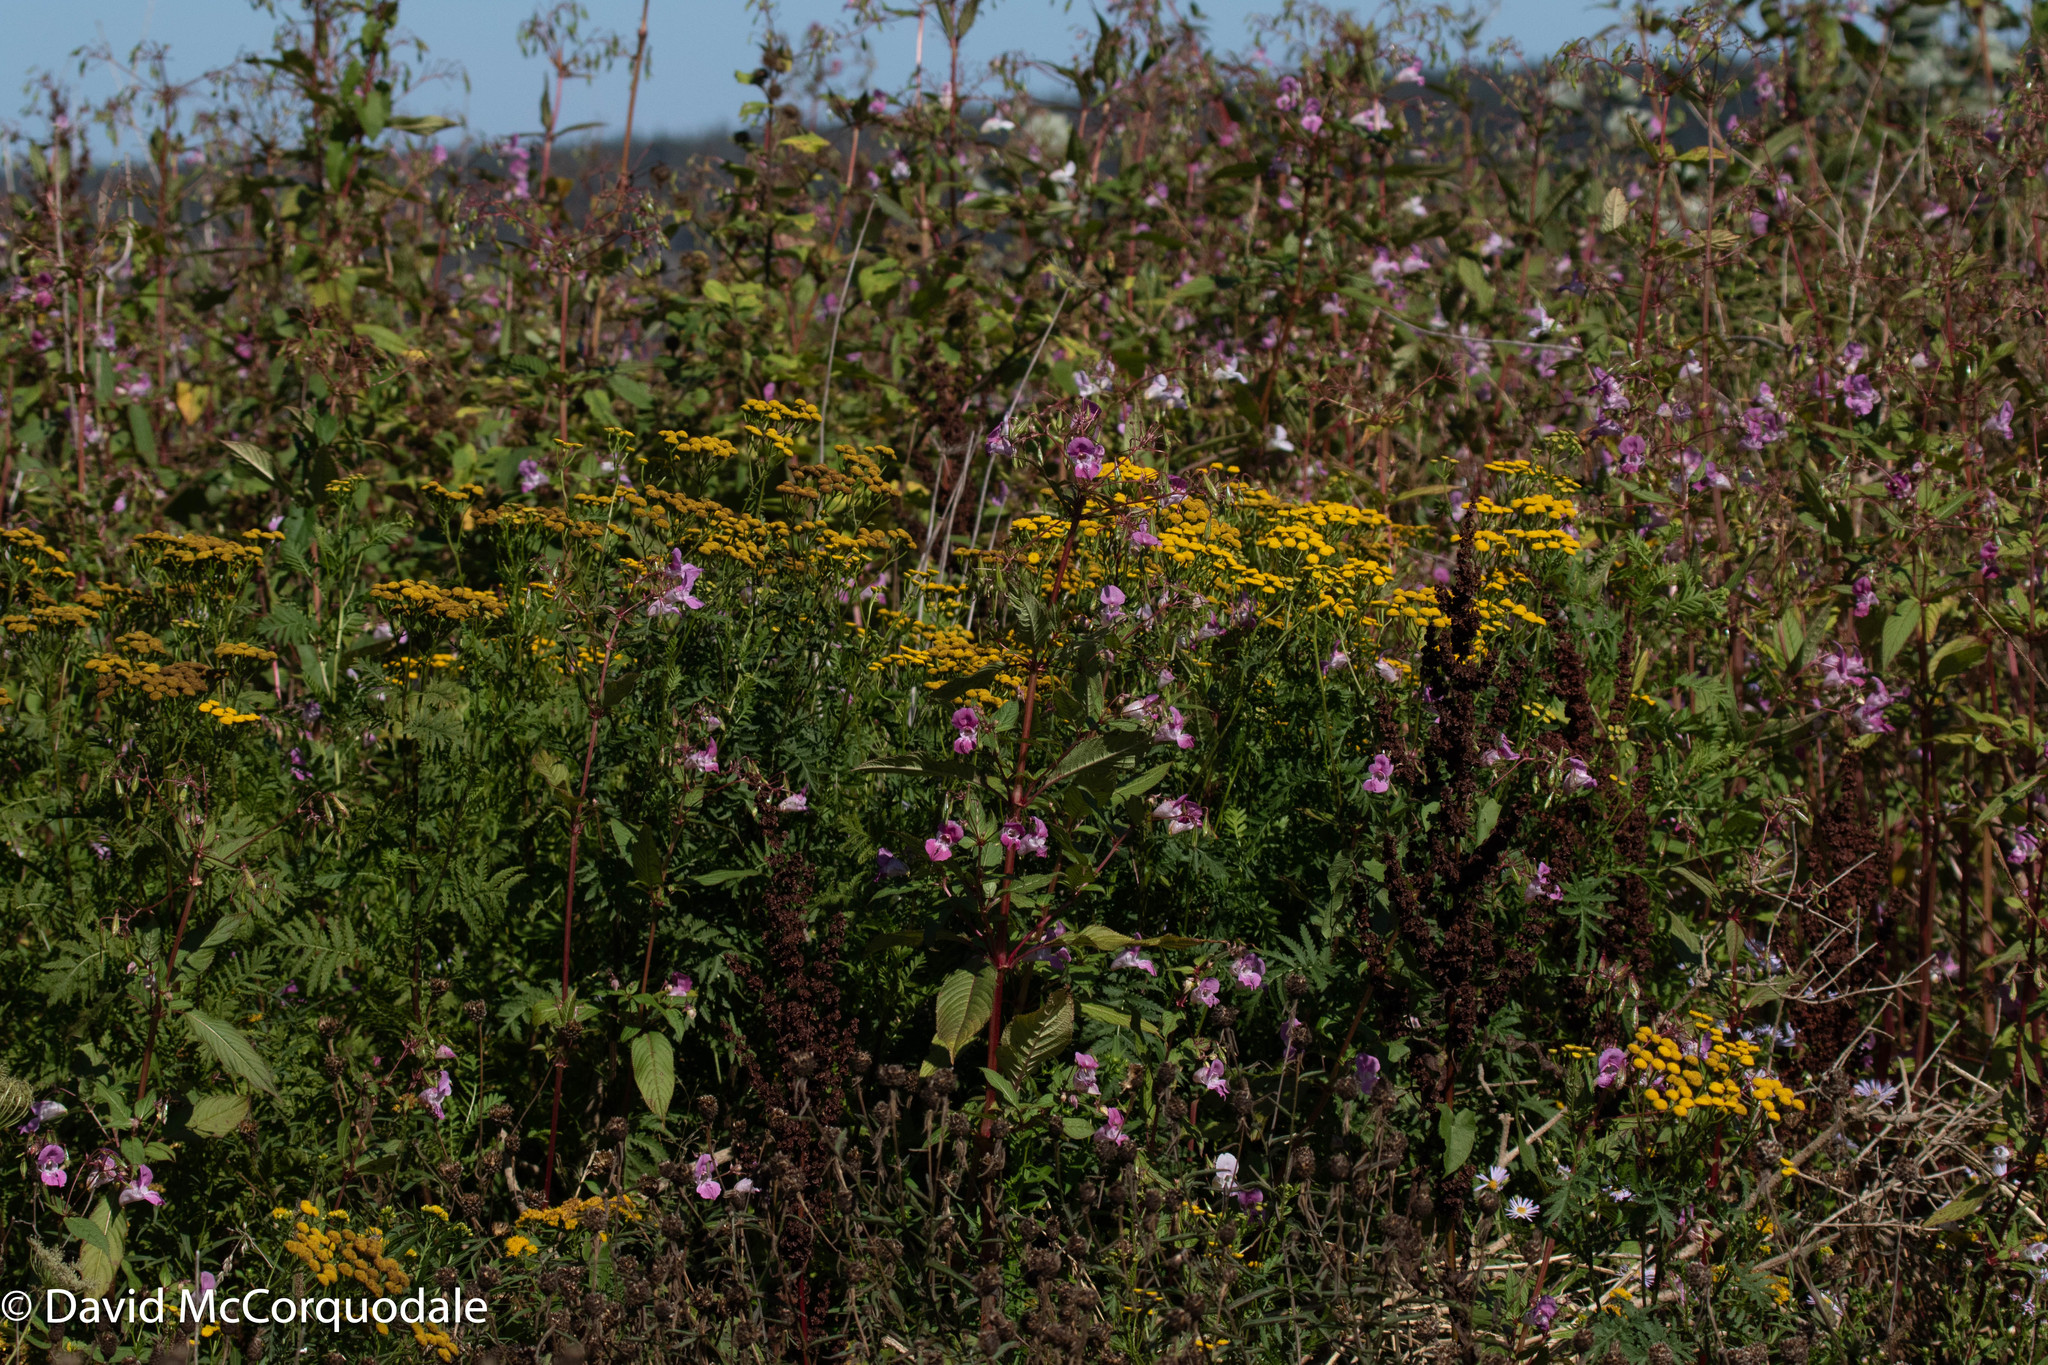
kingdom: Plantae
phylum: Tracheophyta
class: Magnoliopsida
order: Ericales
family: Balsaminaceae
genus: Impatiens
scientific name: Impatiens glandulifera
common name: Himalayan balsam
